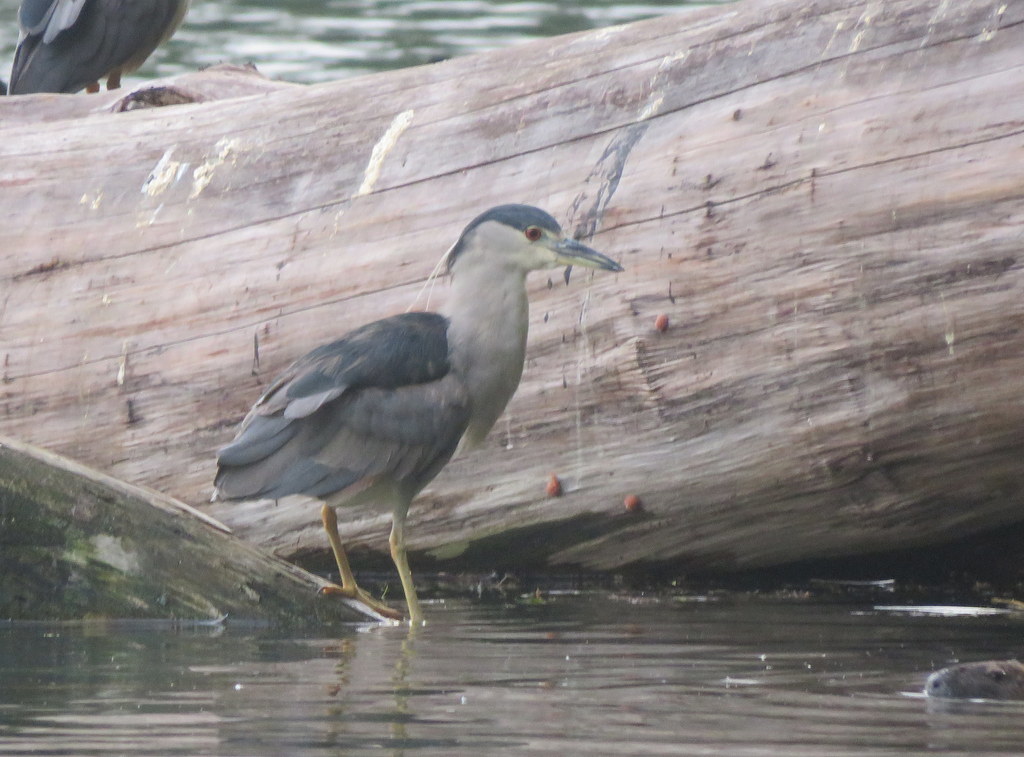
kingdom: Animalia
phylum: Chordata
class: Aves
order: Pelecaniformes
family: Ardeidae
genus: Nycticorax
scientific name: Nycticorax nycticorax
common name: Black-crowned night heron
